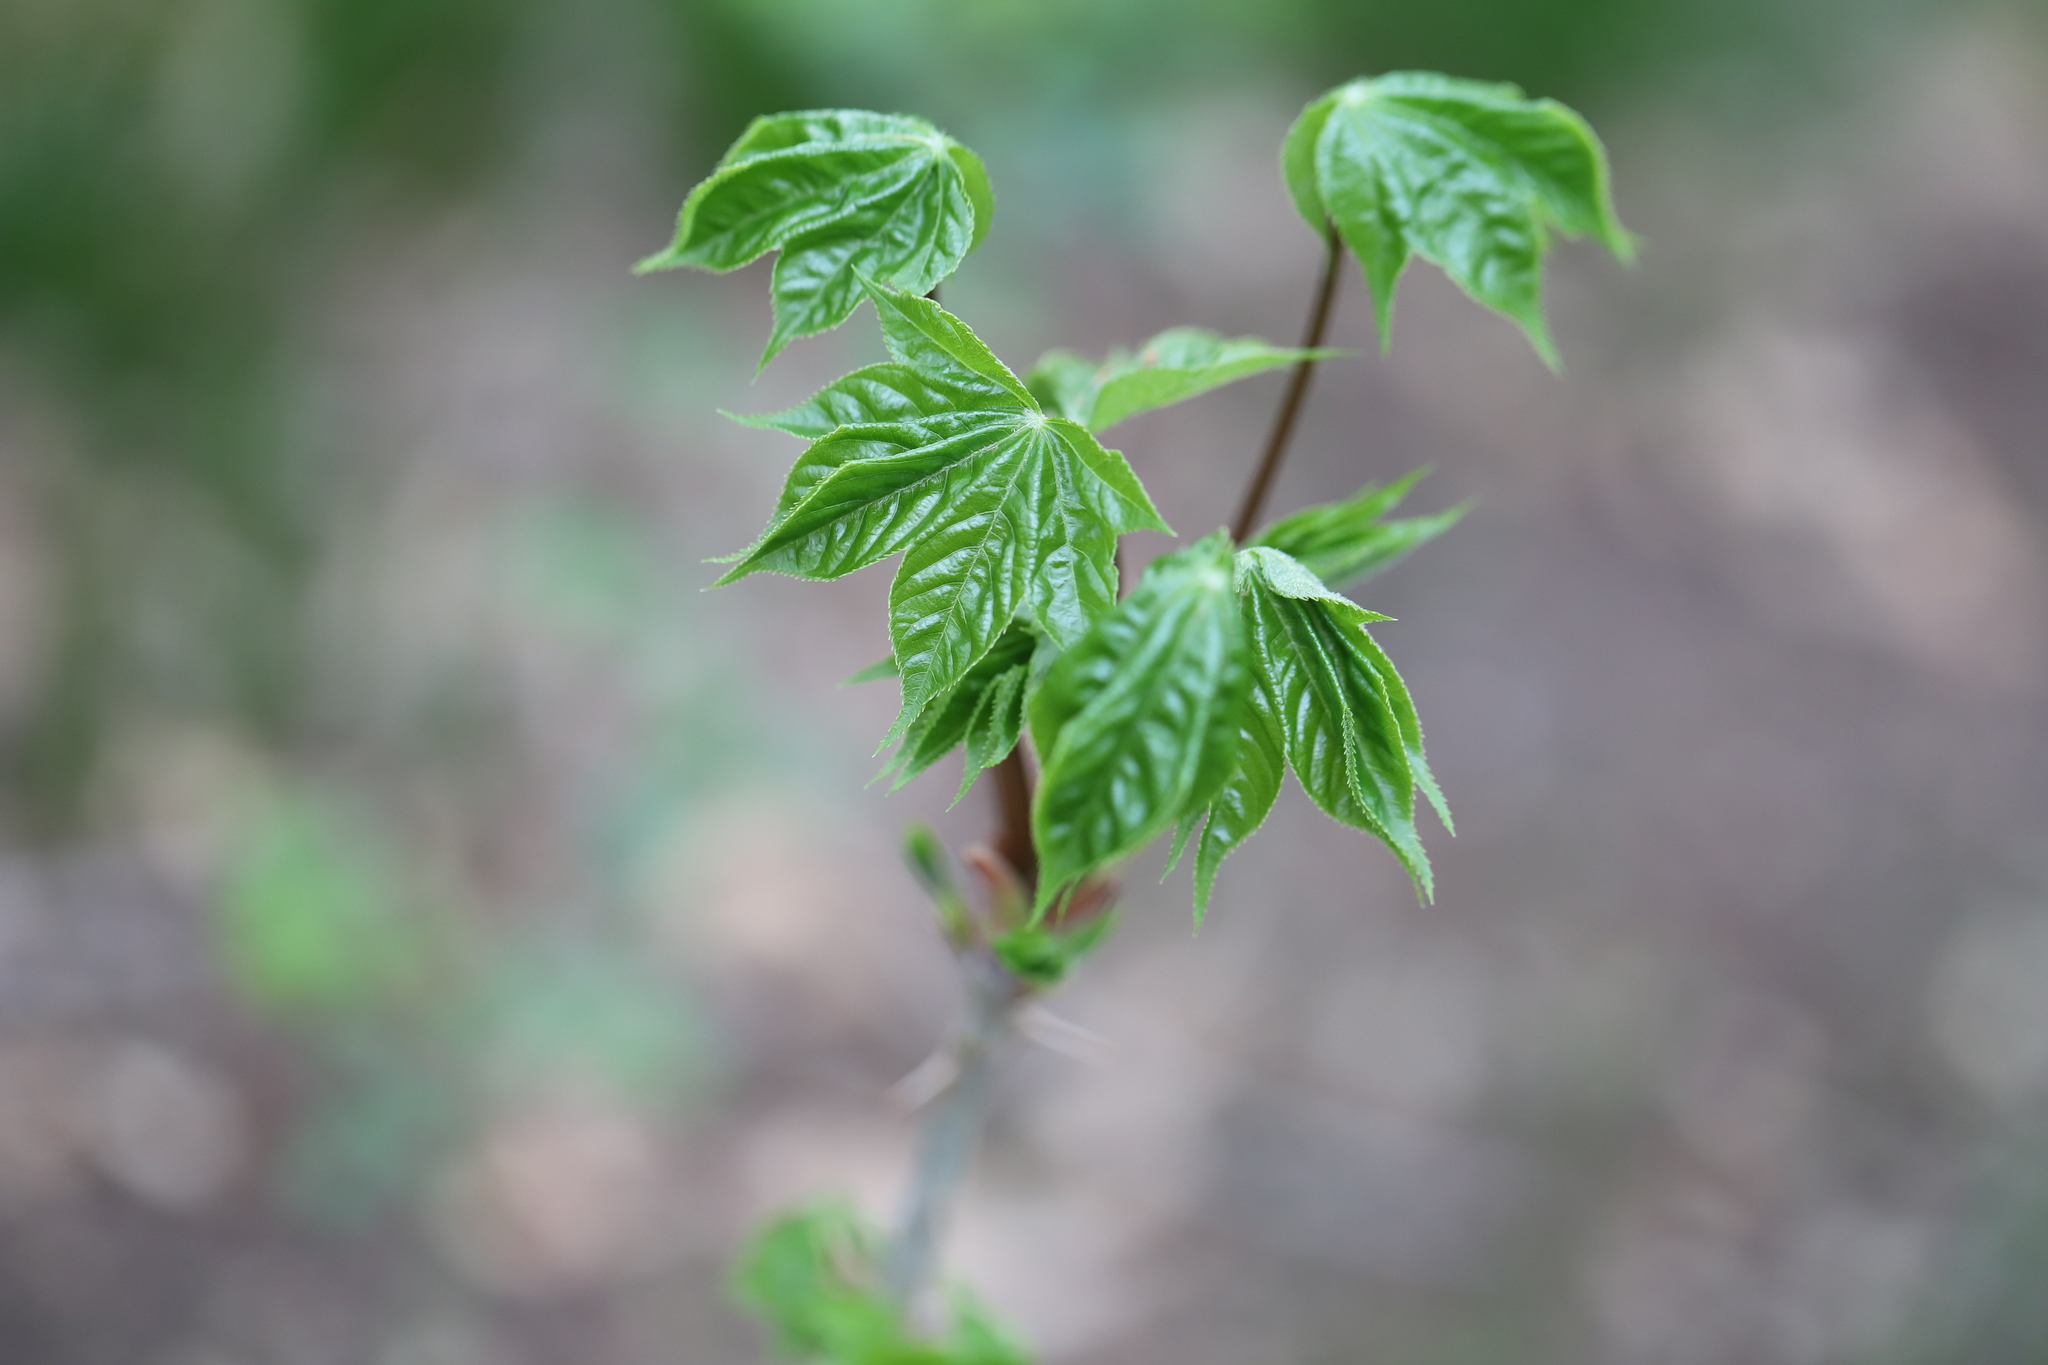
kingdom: Plantae
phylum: Tracheophyta
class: Magnoliopsida
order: Apiales
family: Araliaceae
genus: Kalopanax
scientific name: Kalopanax septemlobus
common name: Castor aralia
